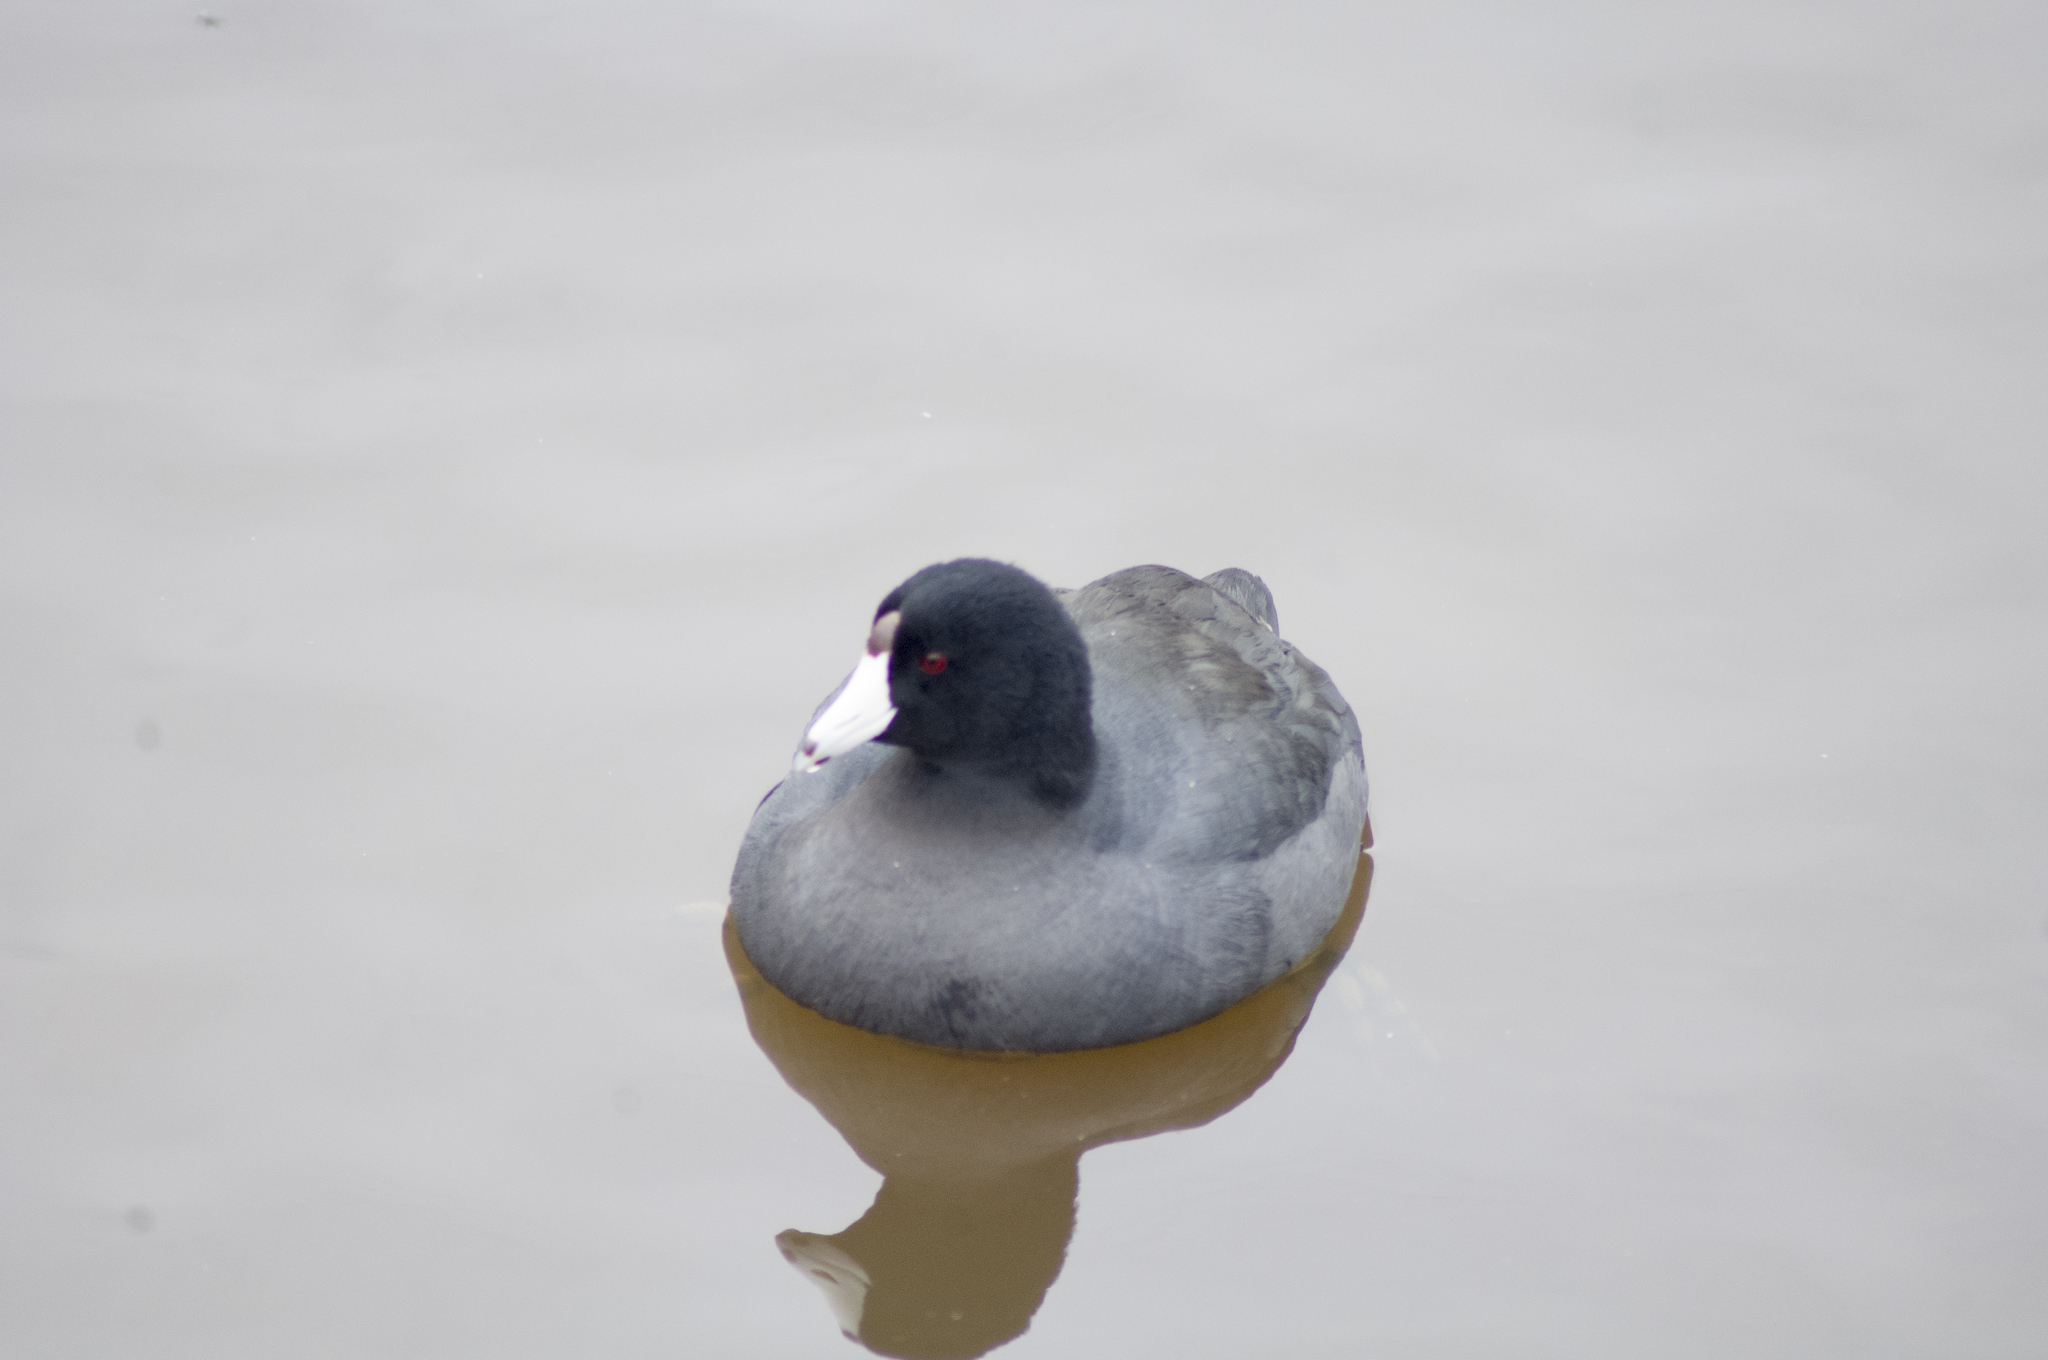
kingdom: Animalia
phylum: Chordata
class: Aves
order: Gruiformes
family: Rallidae
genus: Fulica
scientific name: Fulica americana
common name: American coot
